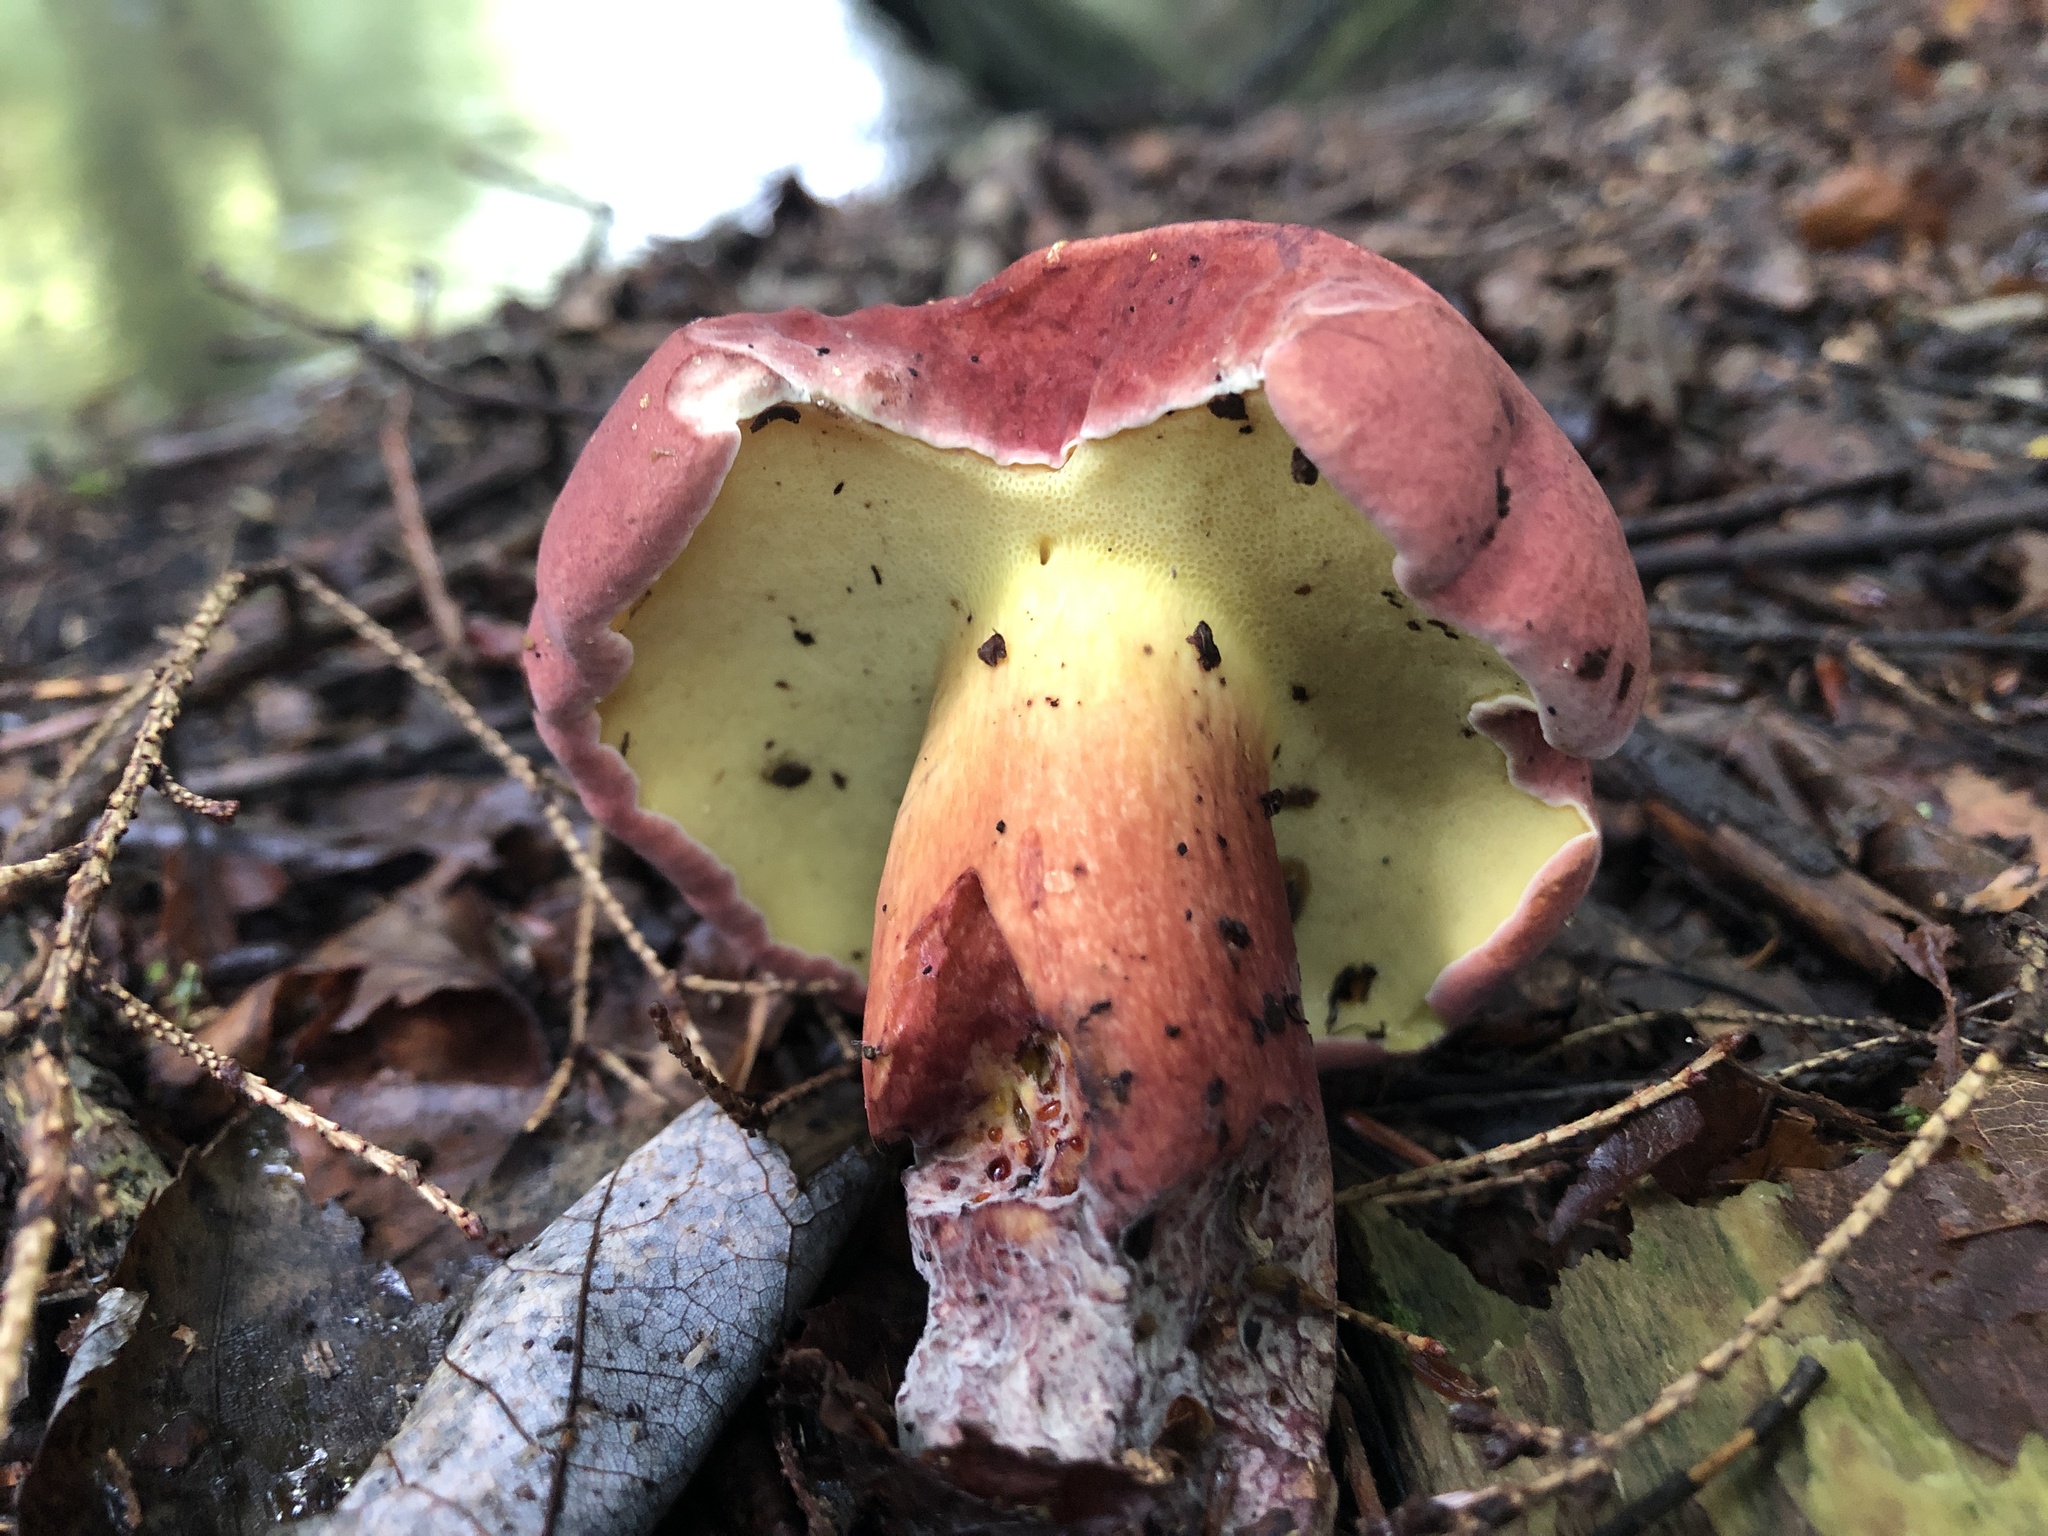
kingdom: Fungi
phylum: Basidiomycota
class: Agaricomycetes
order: Boletales
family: Boletaceae
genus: Baorangia
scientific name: Baorangia bicolor
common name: Two-colored bolete
